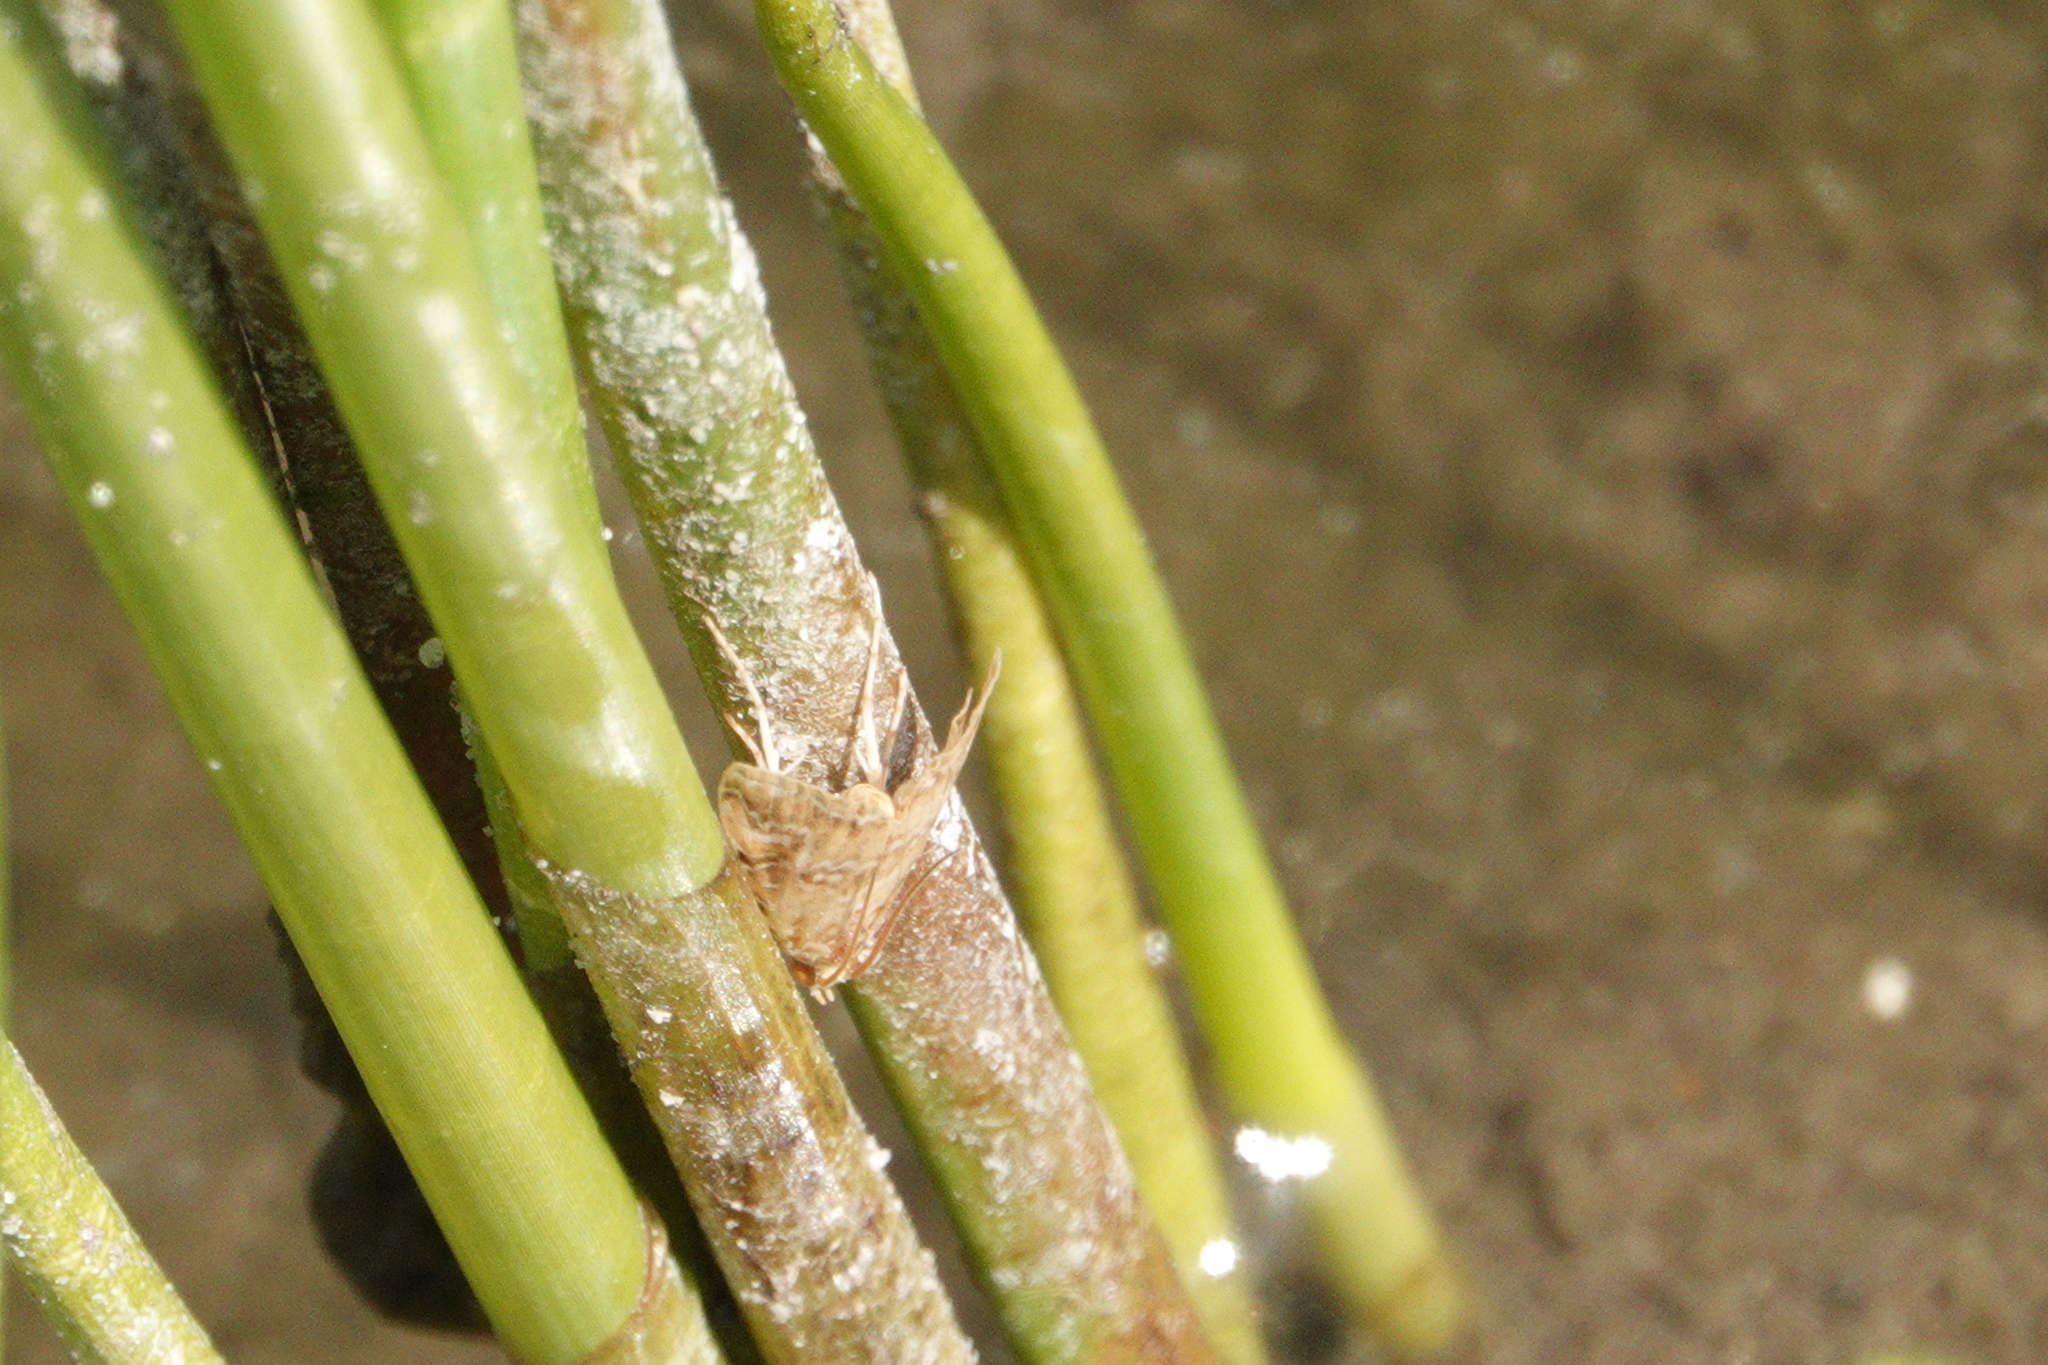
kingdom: Animalia
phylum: Arthropoda
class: Insecta
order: Lepidoptera
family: Crambidae
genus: Elophila
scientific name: Elophila gyralis
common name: Waterlily borer moth
